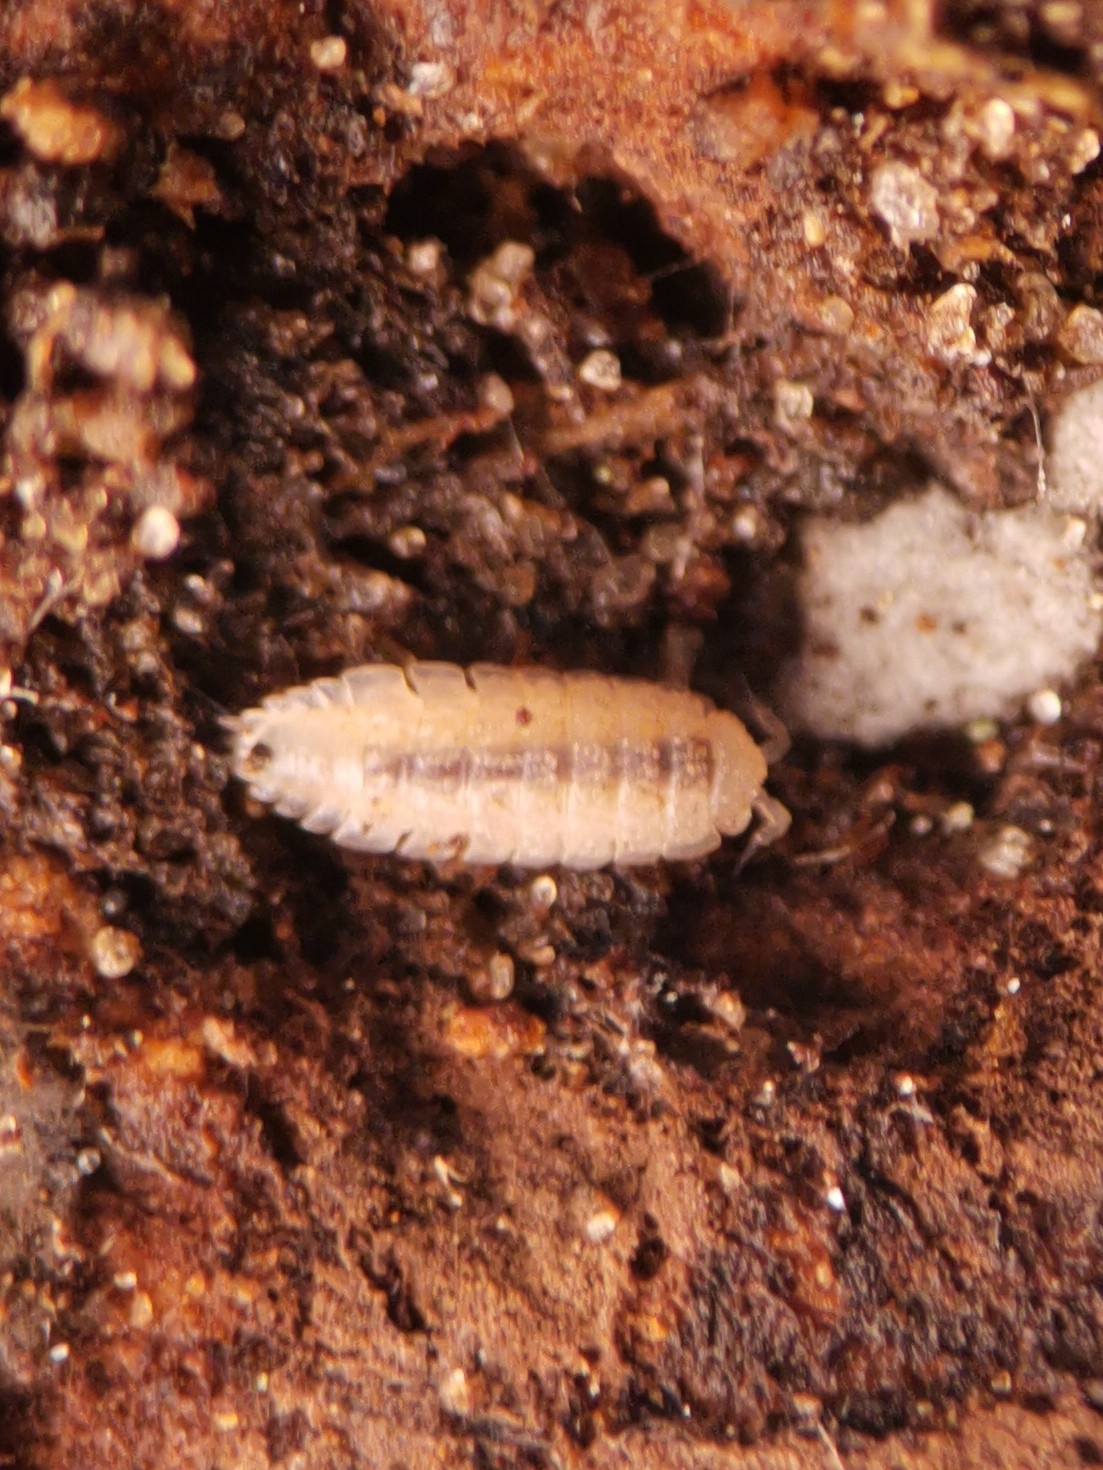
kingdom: Animalia
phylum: Arthropoda
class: Malacostraca
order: Isopoda
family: Trichoniscidae
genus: Haplophthalmus
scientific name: Haplophthalmus
